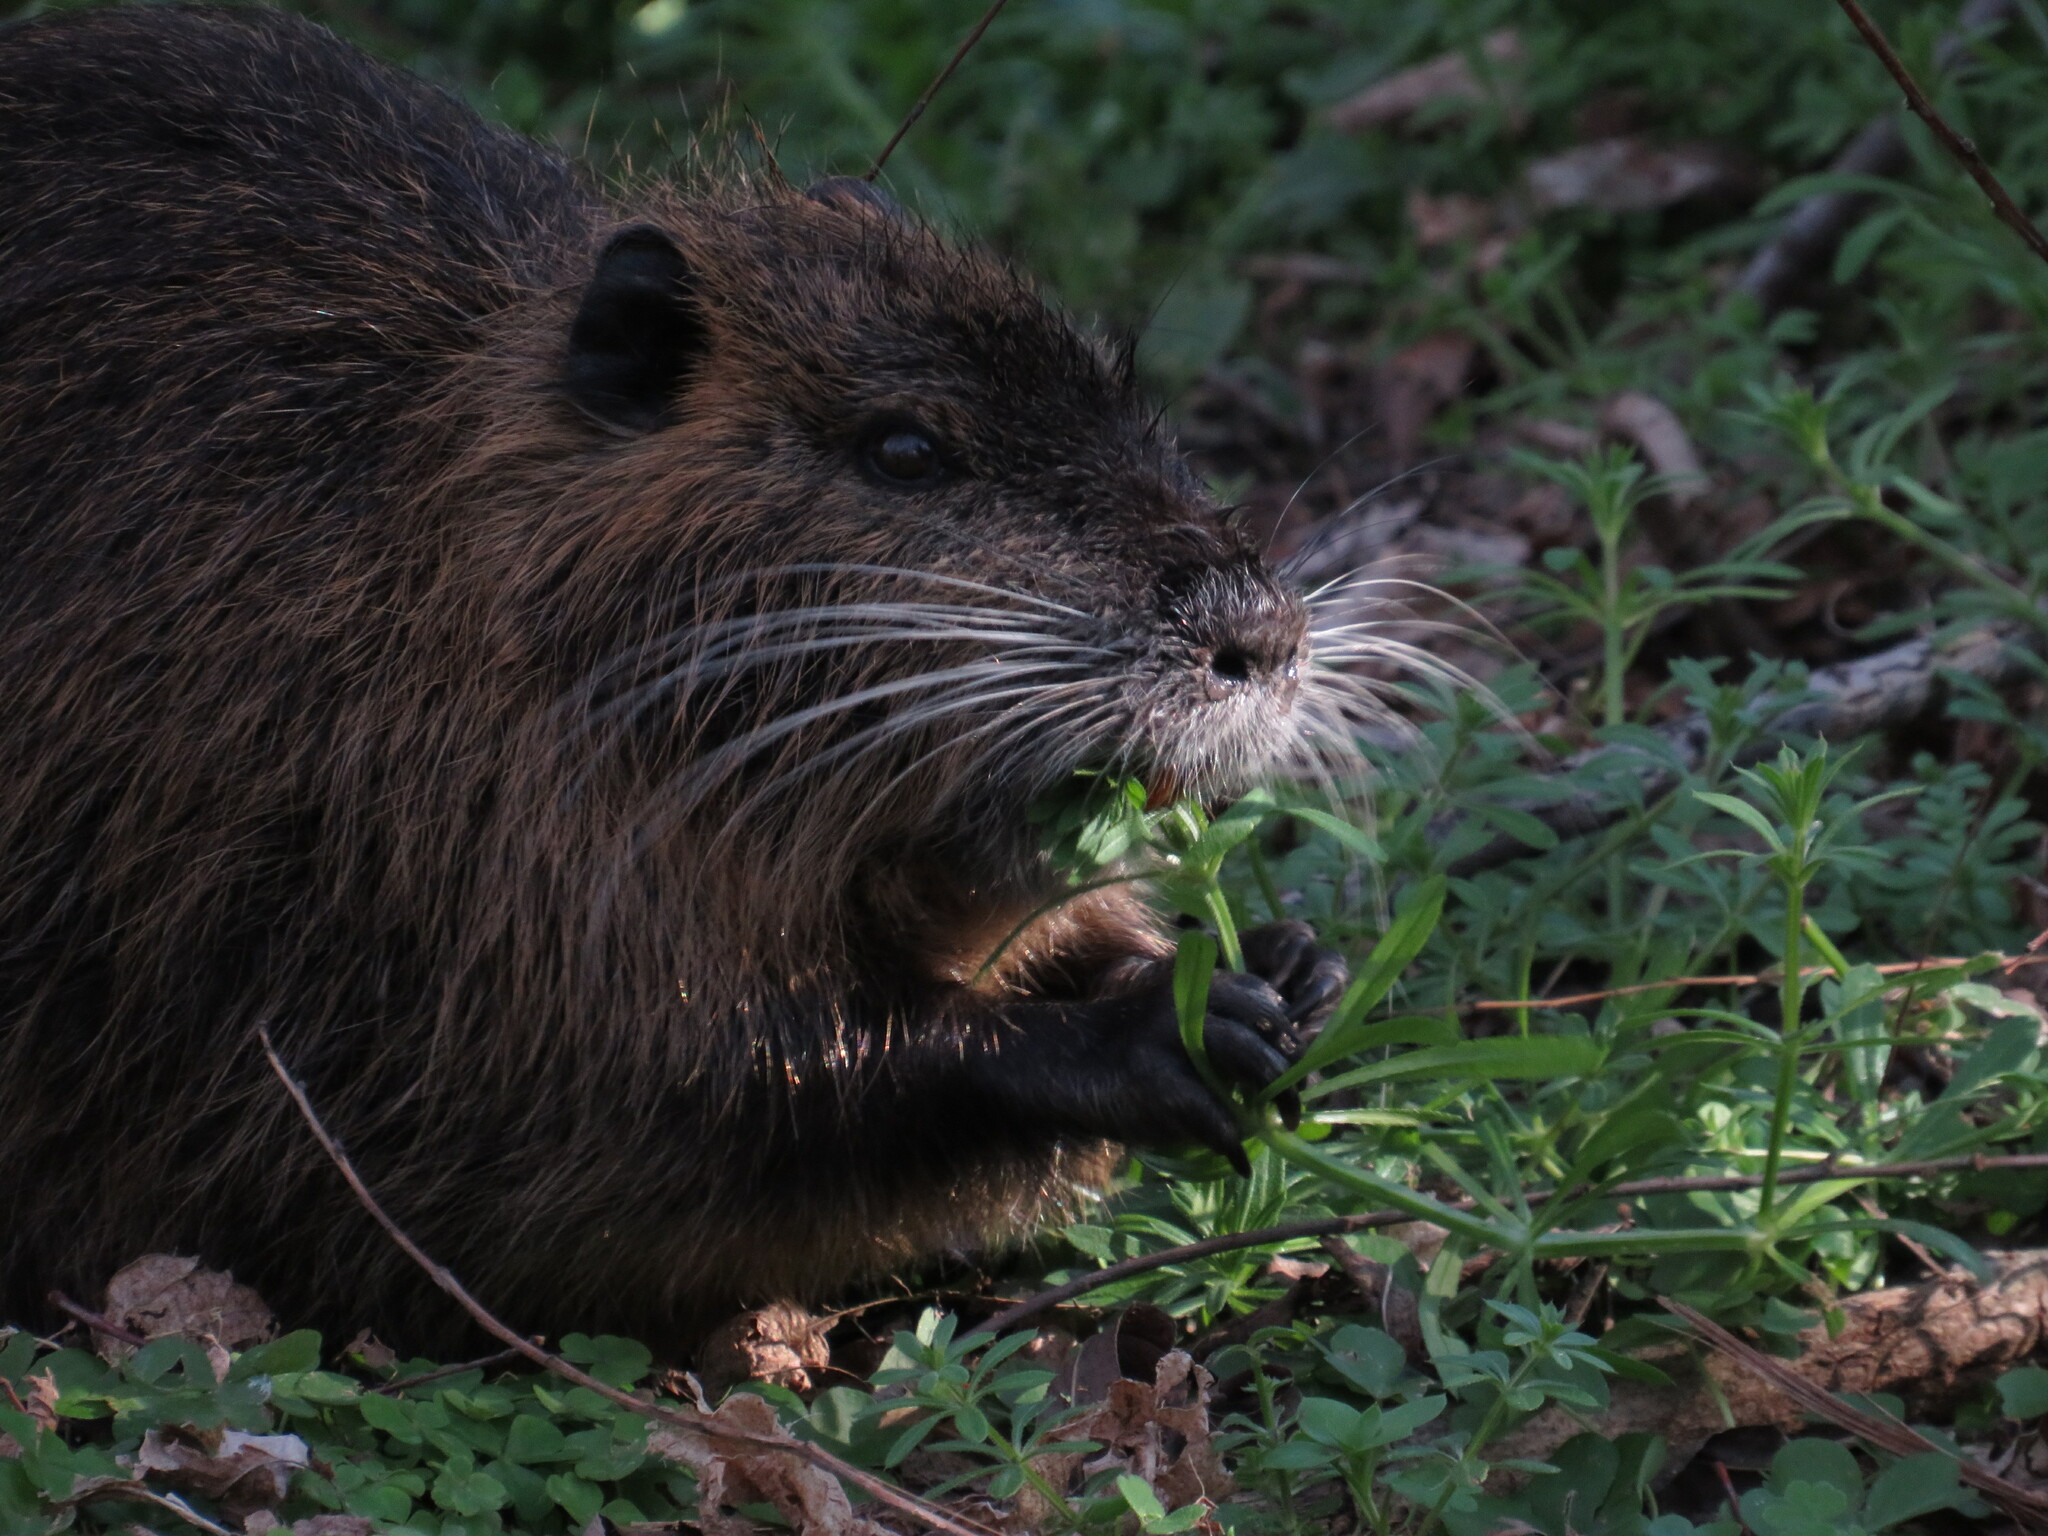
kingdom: Animalia
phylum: Chordata
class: Mammalia
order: Rodentia
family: Myocastoridae
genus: Myocastor
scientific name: Myocastor coypus
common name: Coypu
